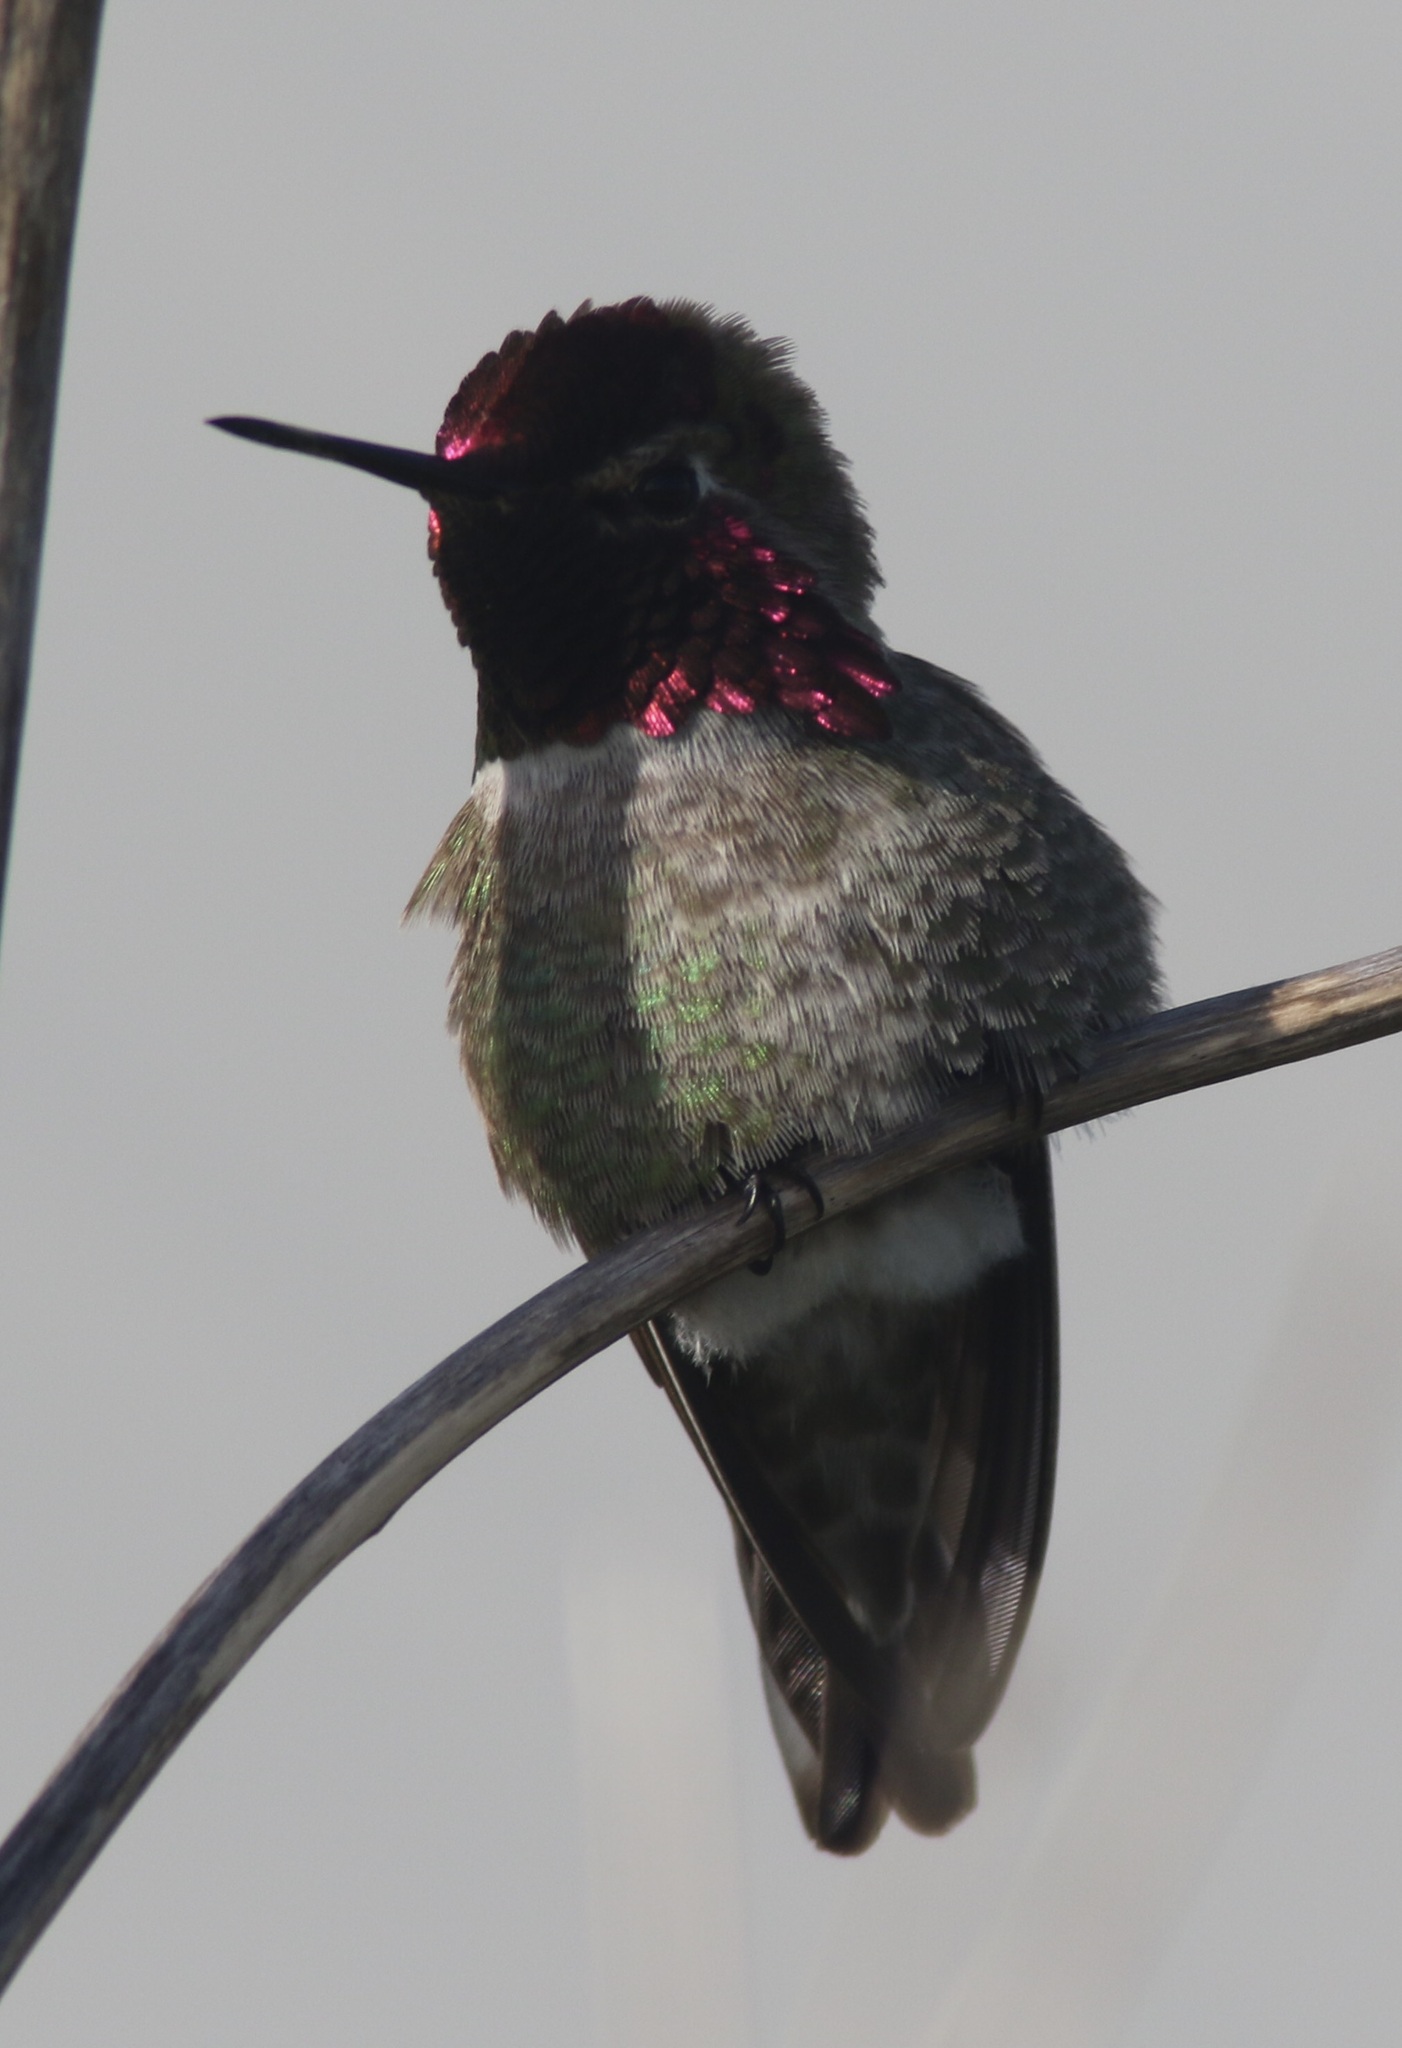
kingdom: Animalia
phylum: Chordata
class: Aves
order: Apodiformes
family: Trochilidae
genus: Calypte
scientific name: Calypte anna
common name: Anna's hummingbird
